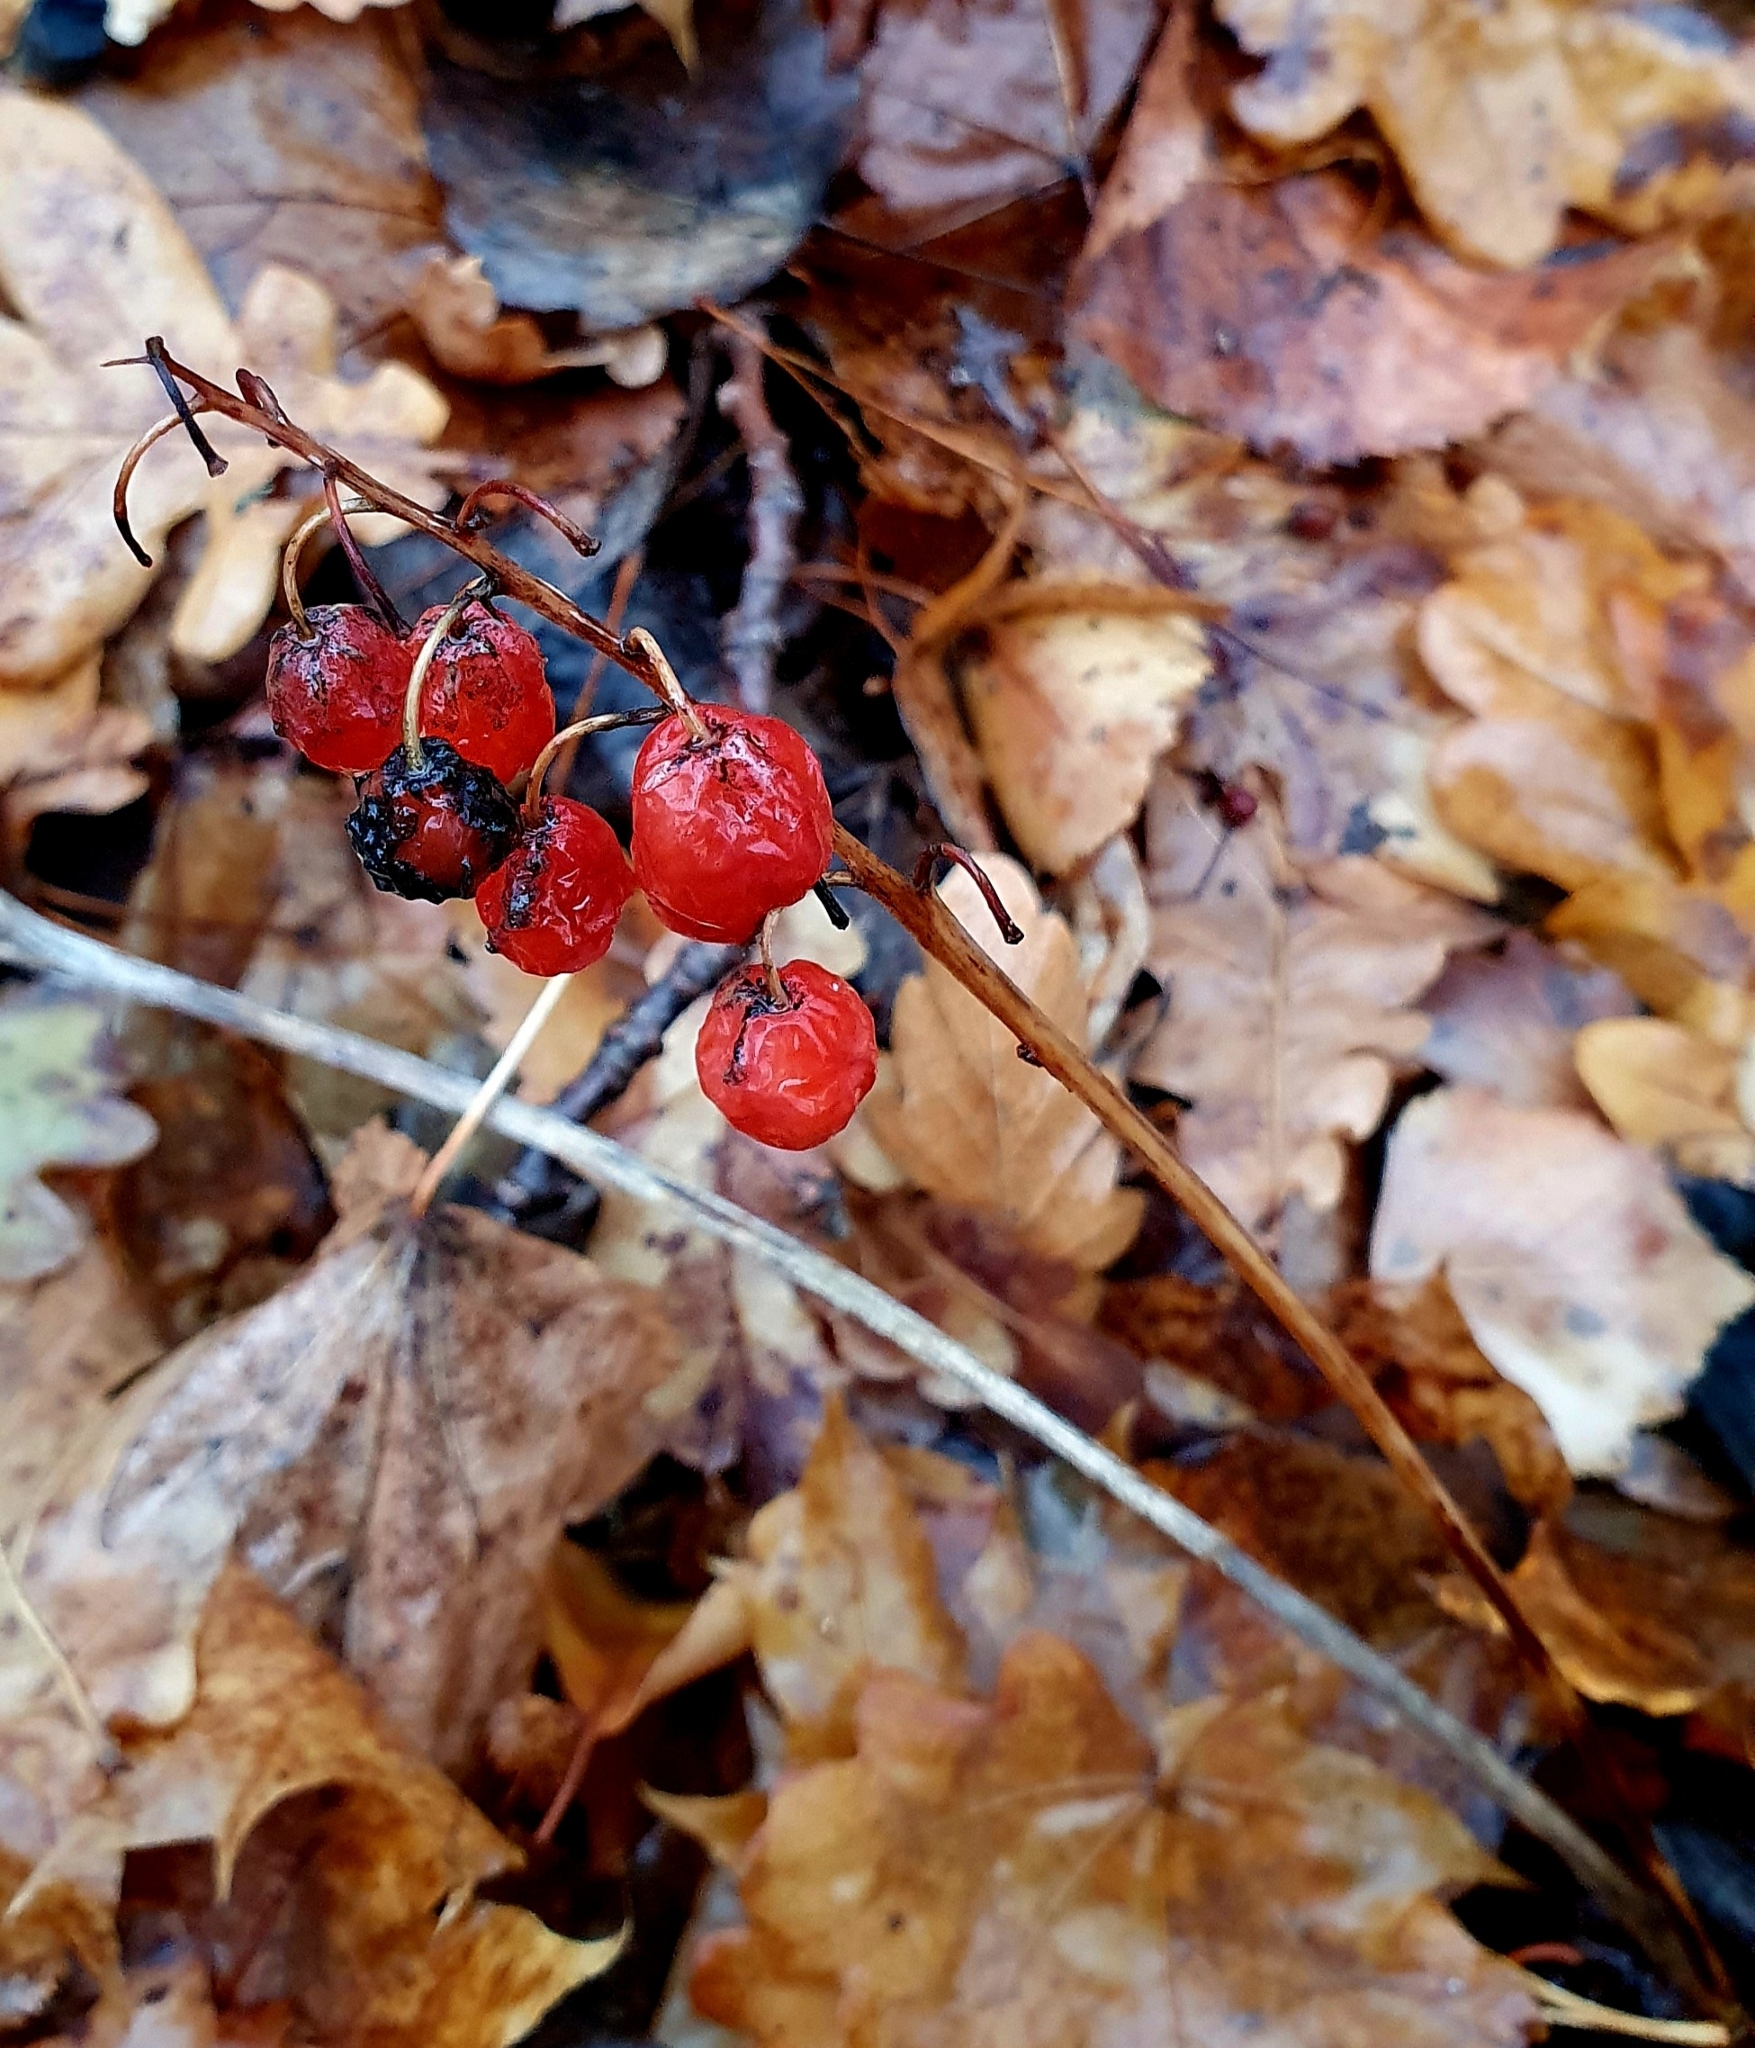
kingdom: Plantae
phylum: Tracheophyta
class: Liliopsida
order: Asparagales
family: Asparagaceae
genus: Convallaria
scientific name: Convallaria majalis
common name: Lily-of-the-valley
